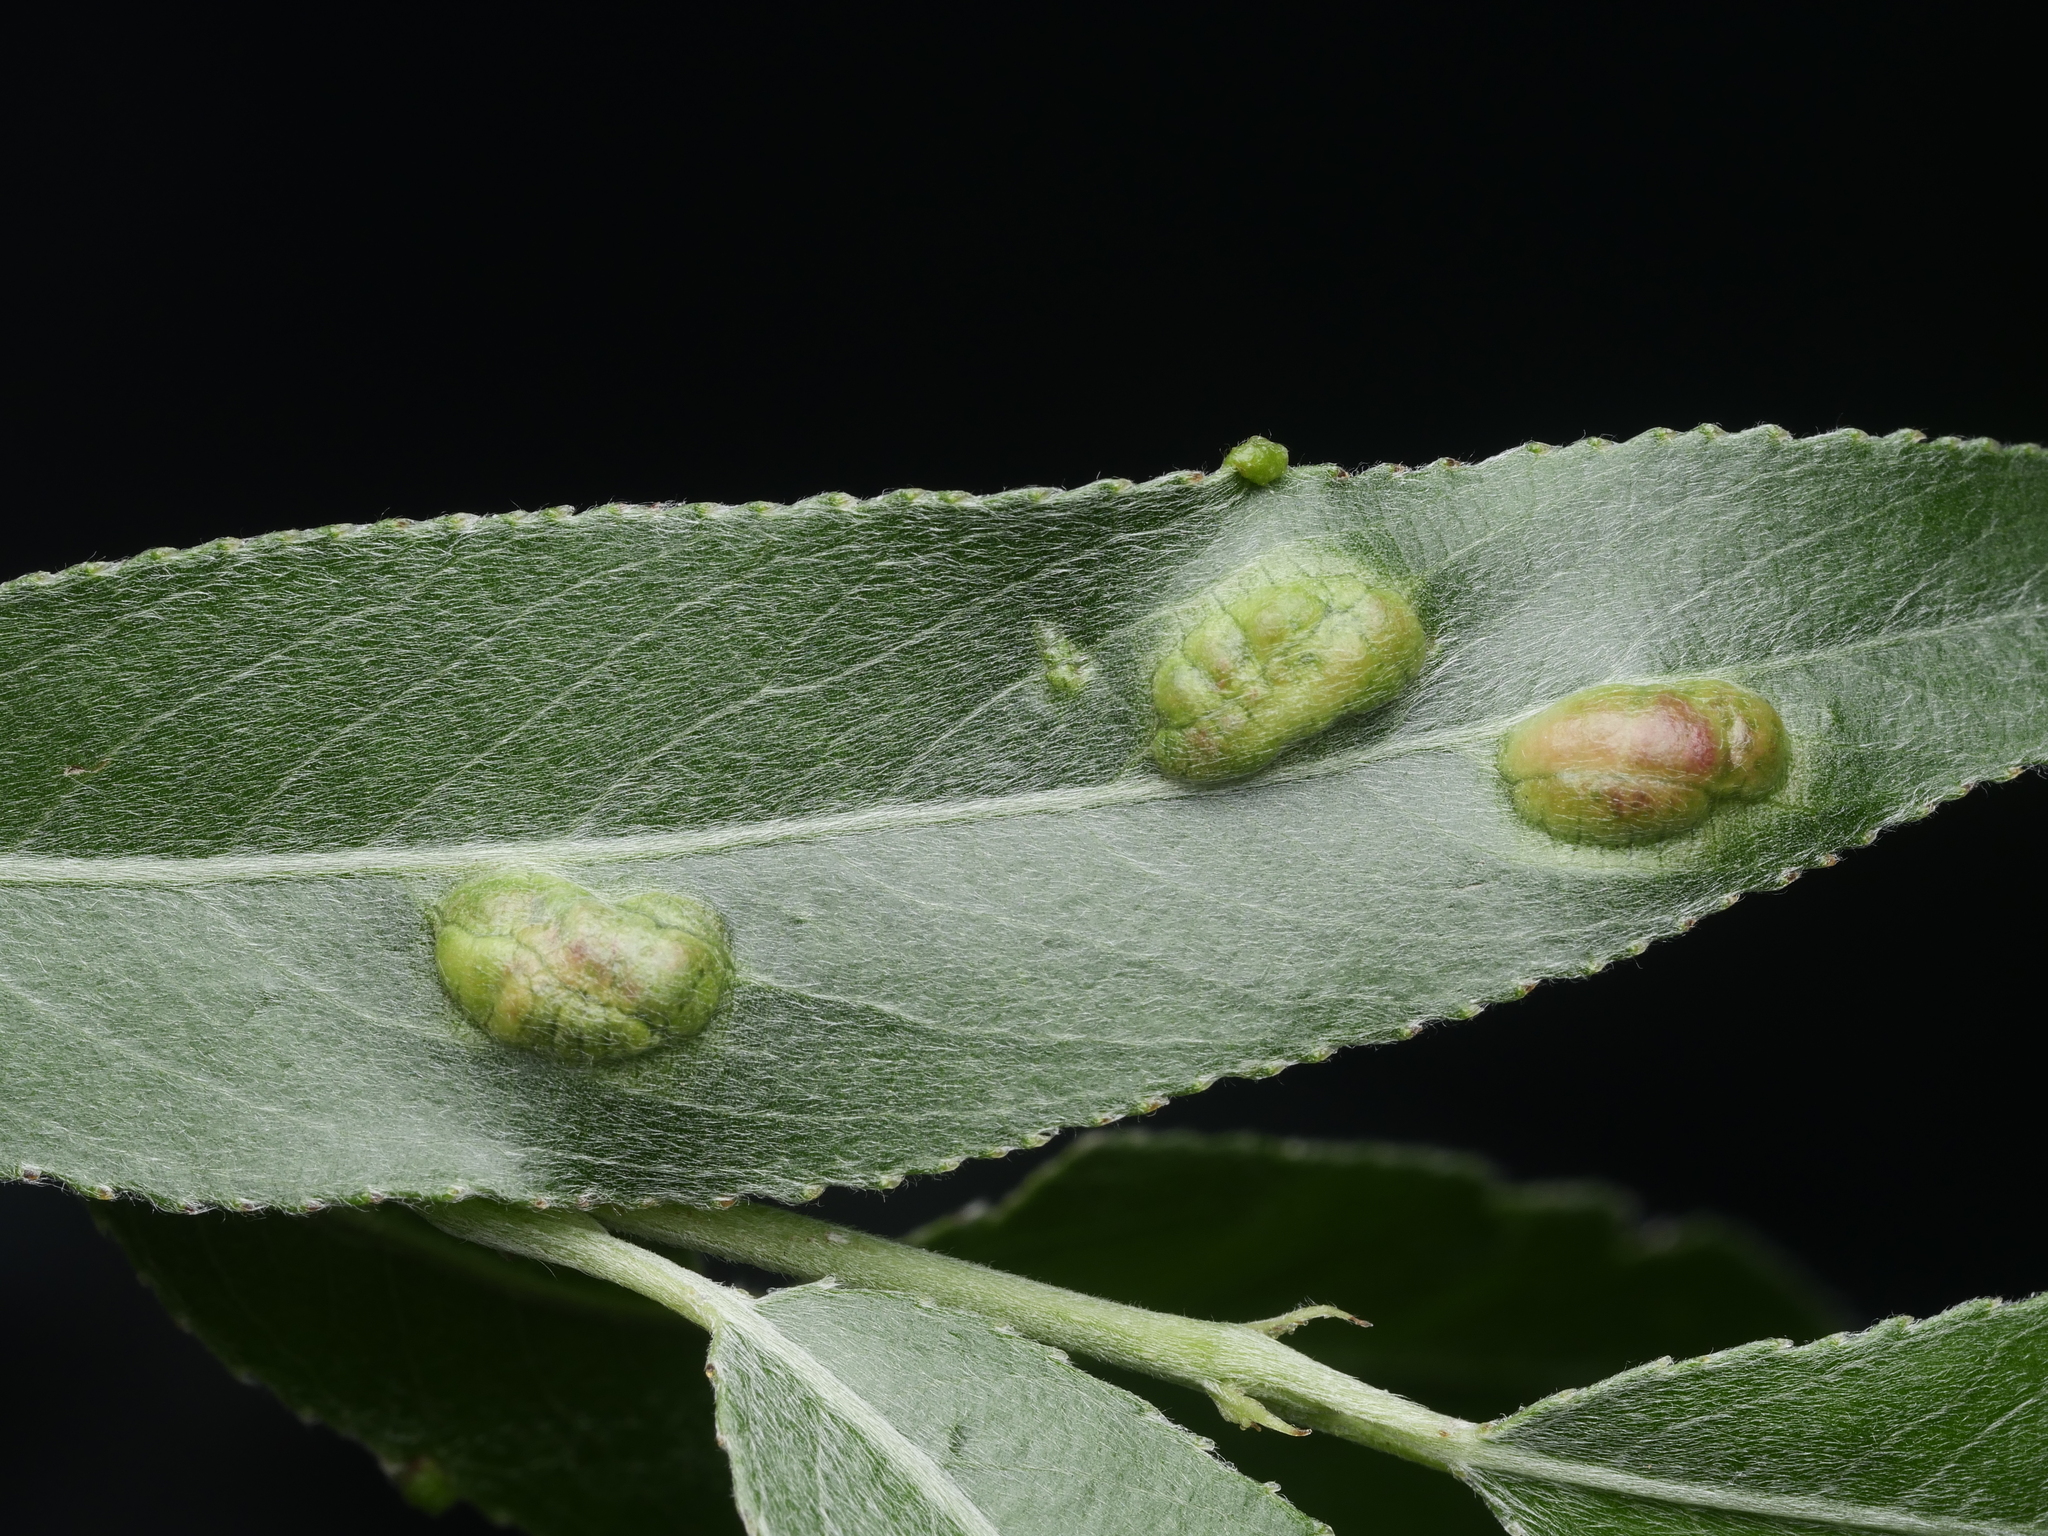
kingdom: Animalia
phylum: Arthropoda
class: Insecta
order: Hymenoptera
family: Tenthredinidae
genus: Pontania
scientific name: Pontania proxima
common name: Common sawfly
